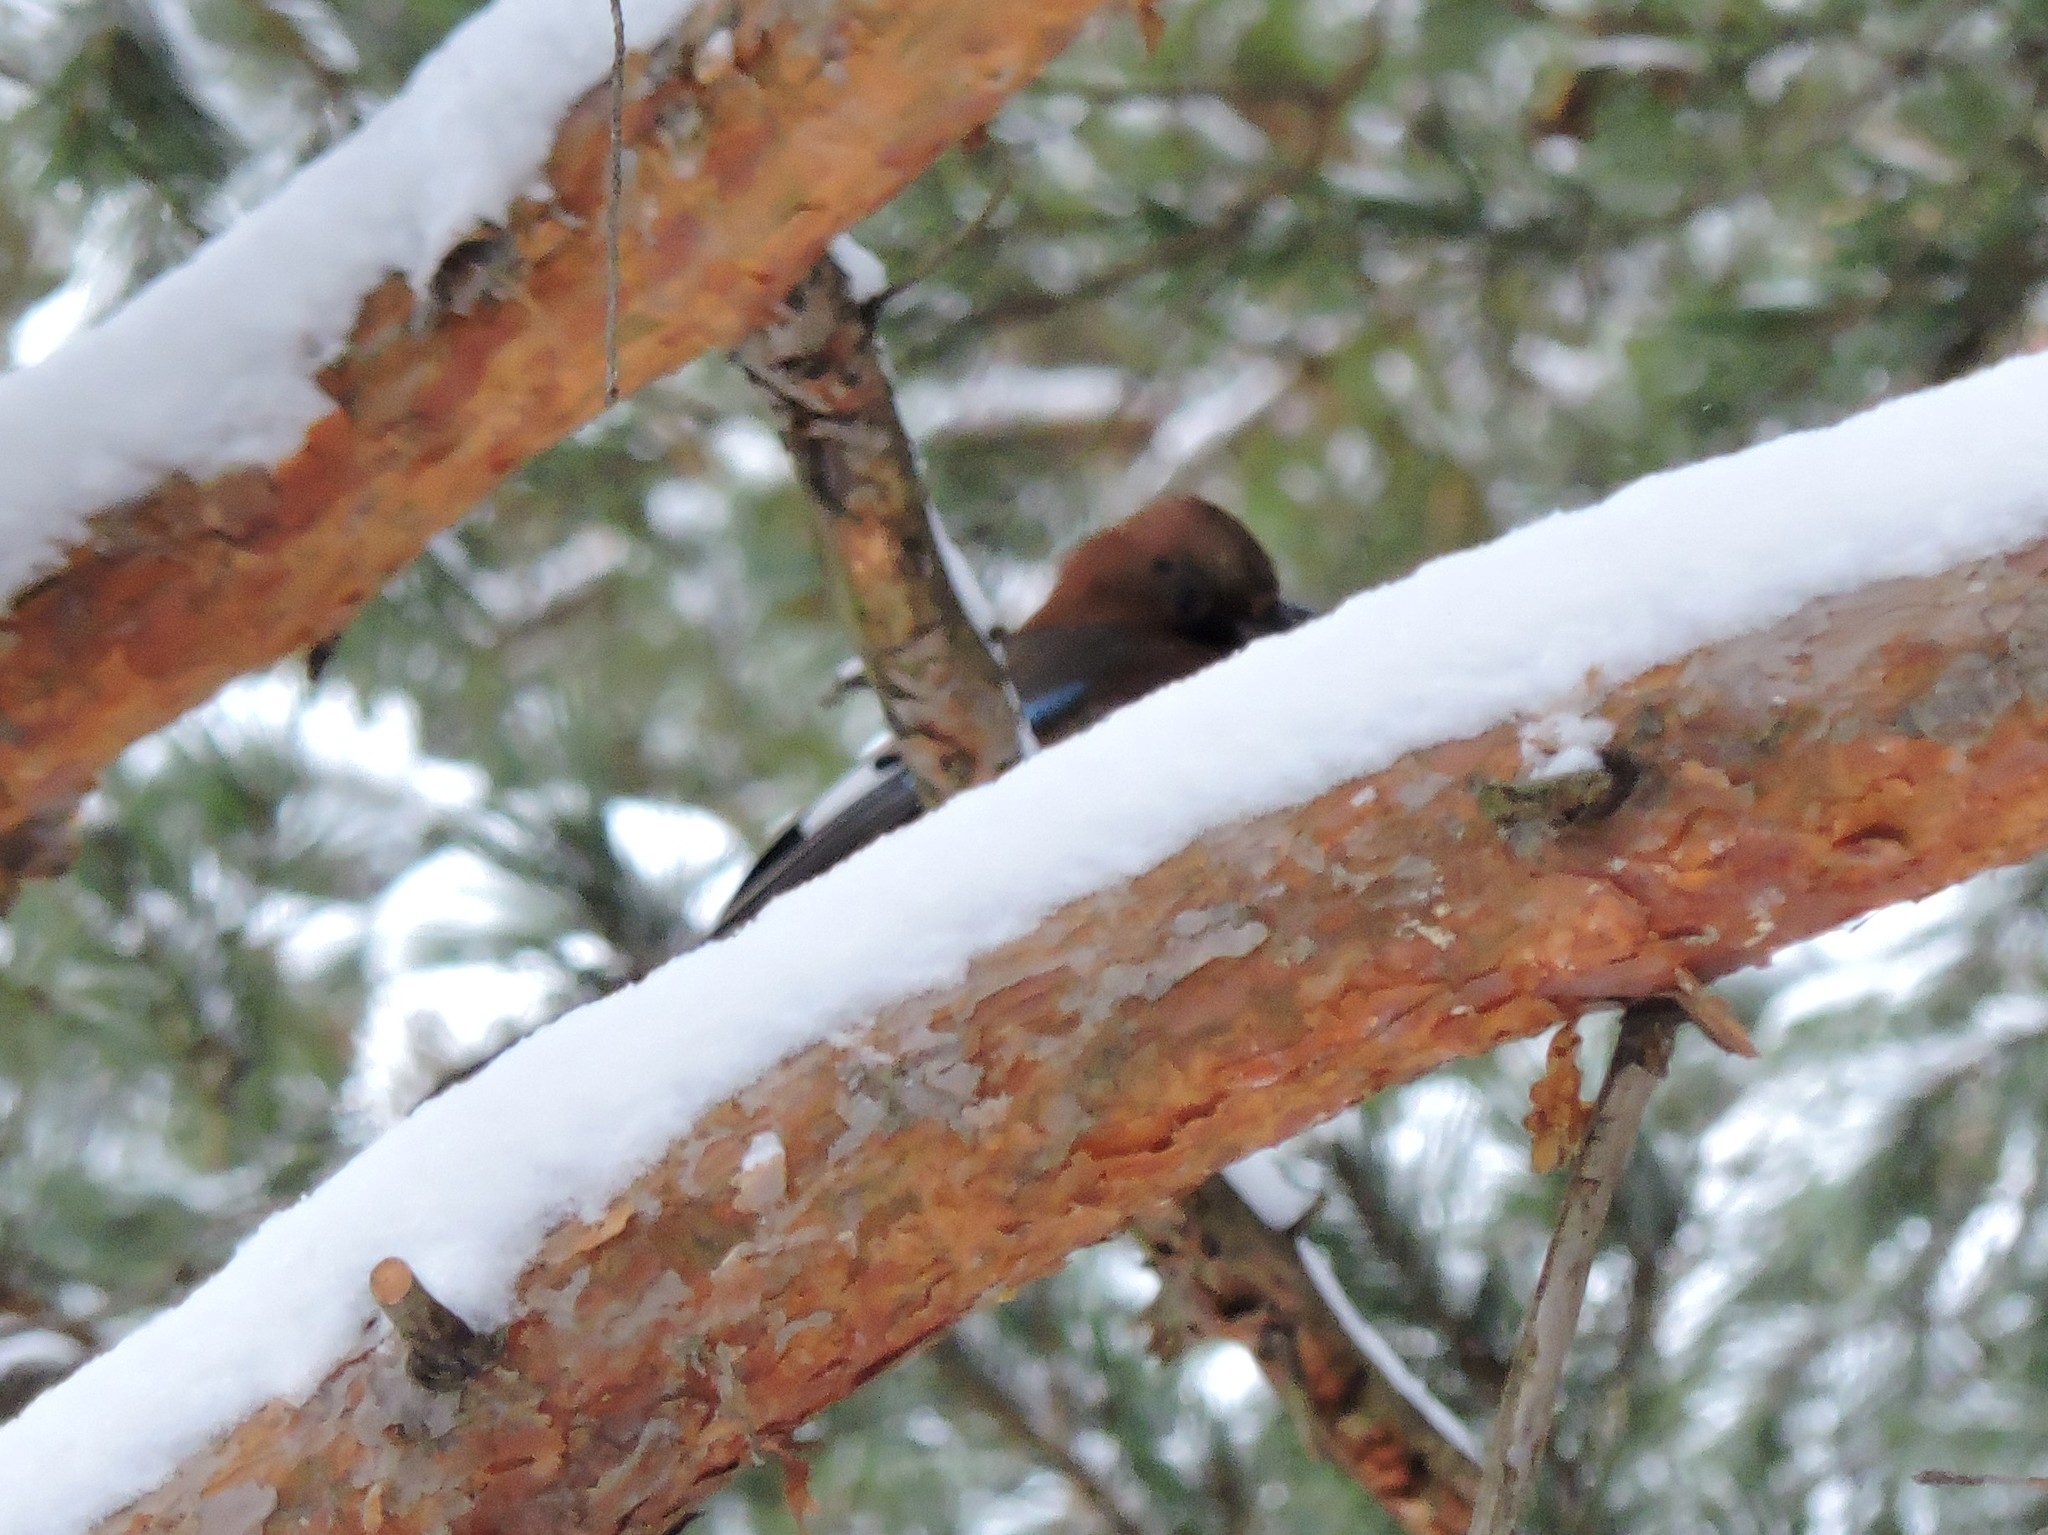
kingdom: Animalia
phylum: Chordata
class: Aves
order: Passeriformes
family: Corvidae
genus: Garrulus
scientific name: Garrulus glandarius
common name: Eurasian jay
